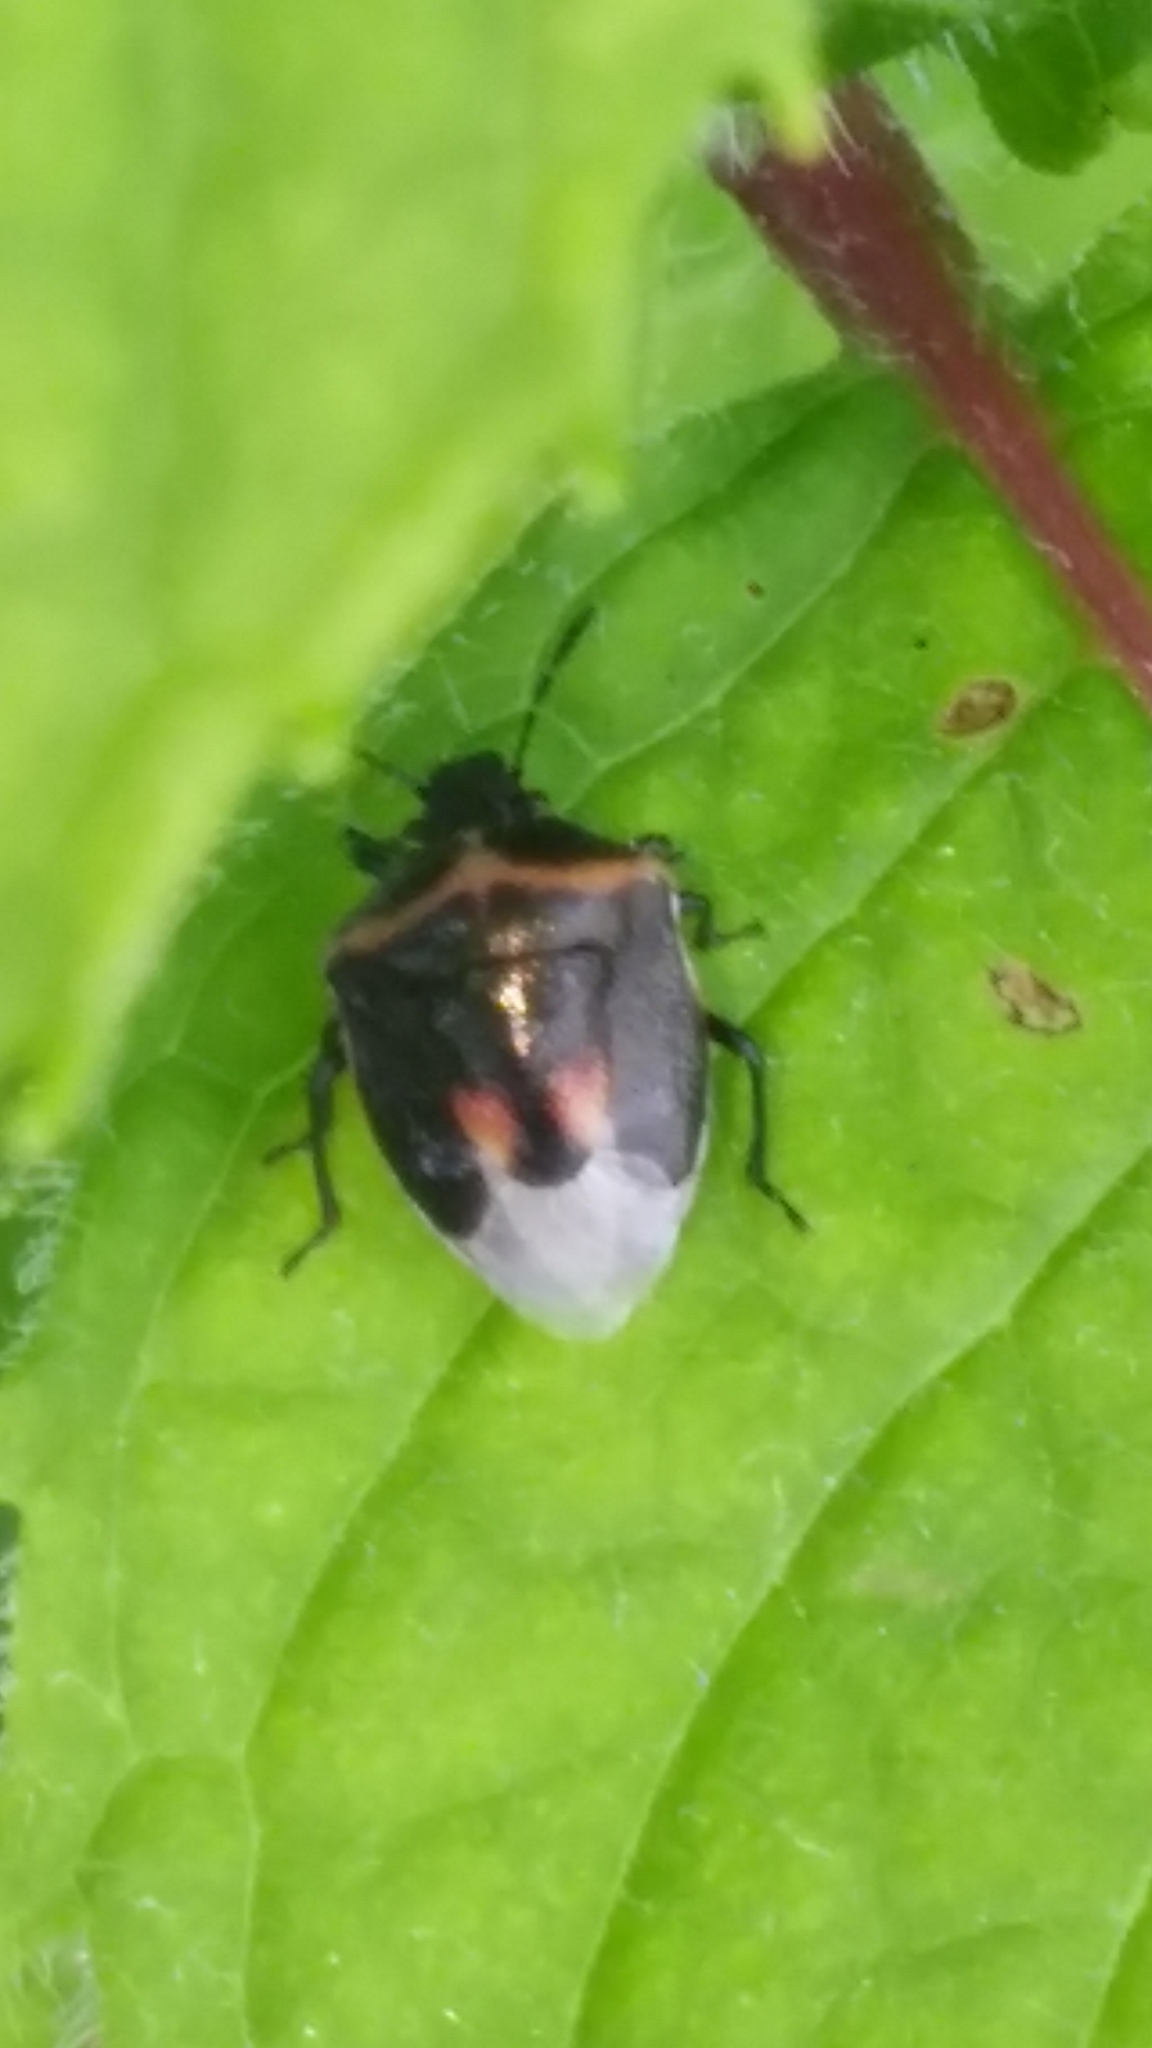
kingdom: Animalia
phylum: Arthropoda
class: Insecta
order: Hemiptera
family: Pentatomidae
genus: Cosmopepla
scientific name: Cosmopepla lintneriana
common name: Twice-stabbed stink bug
